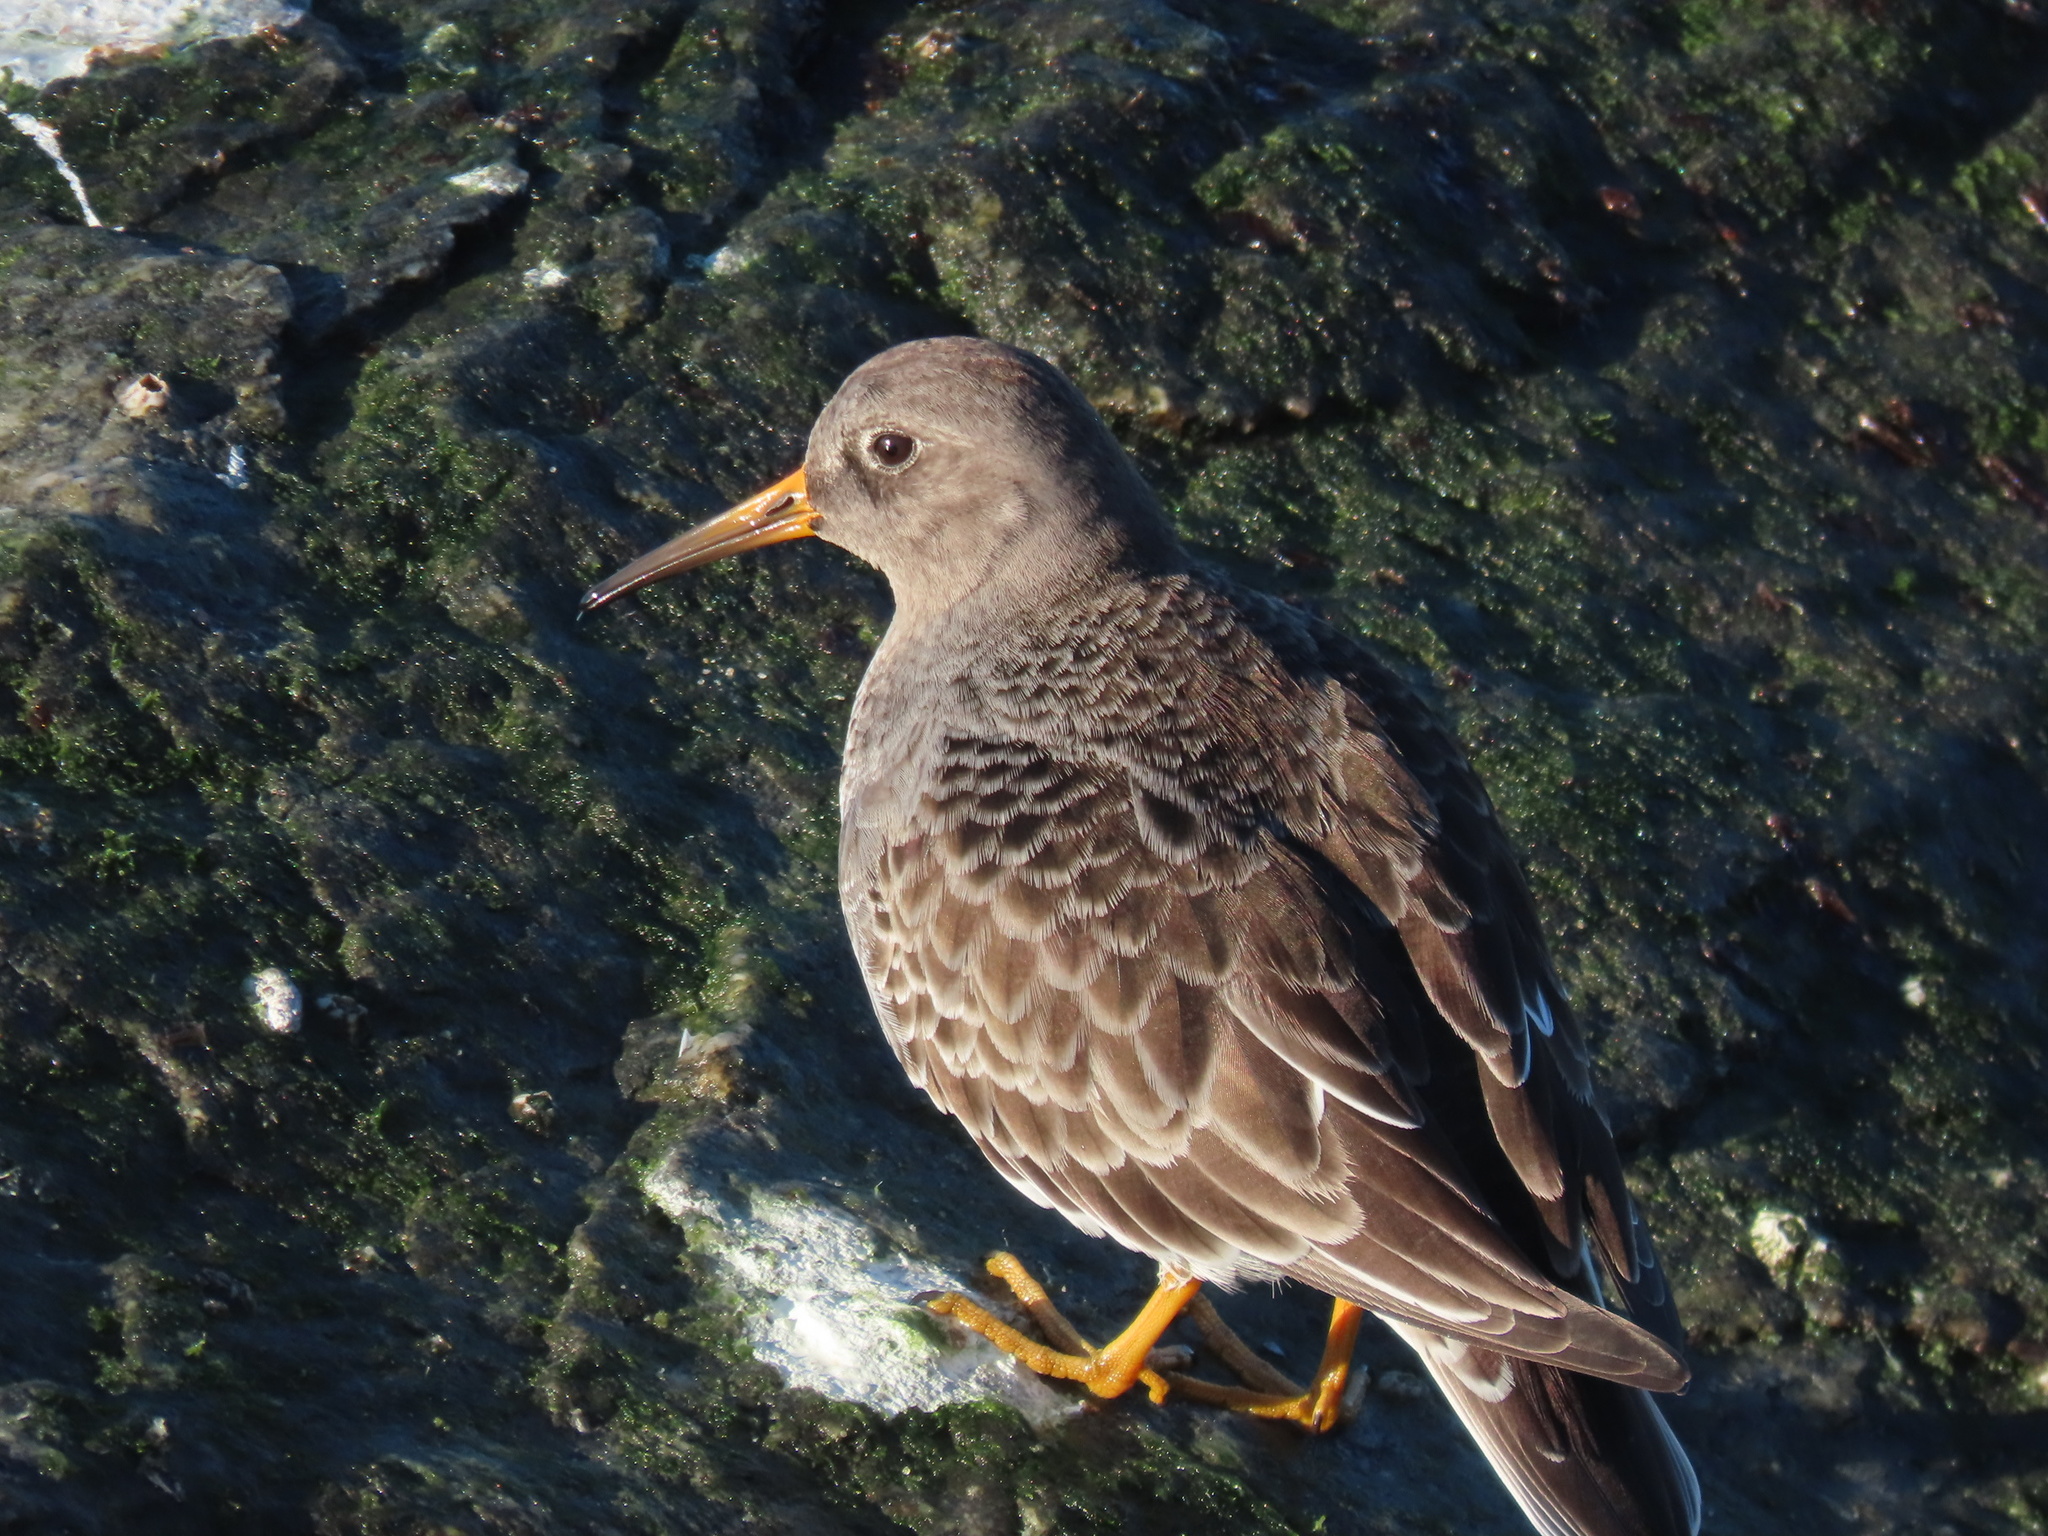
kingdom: Animalia
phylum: Chordata
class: Aves
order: Charadriiformes
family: Scolopacidae
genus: Calidris
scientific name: Calidris maritima
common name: Purple sandpiper
